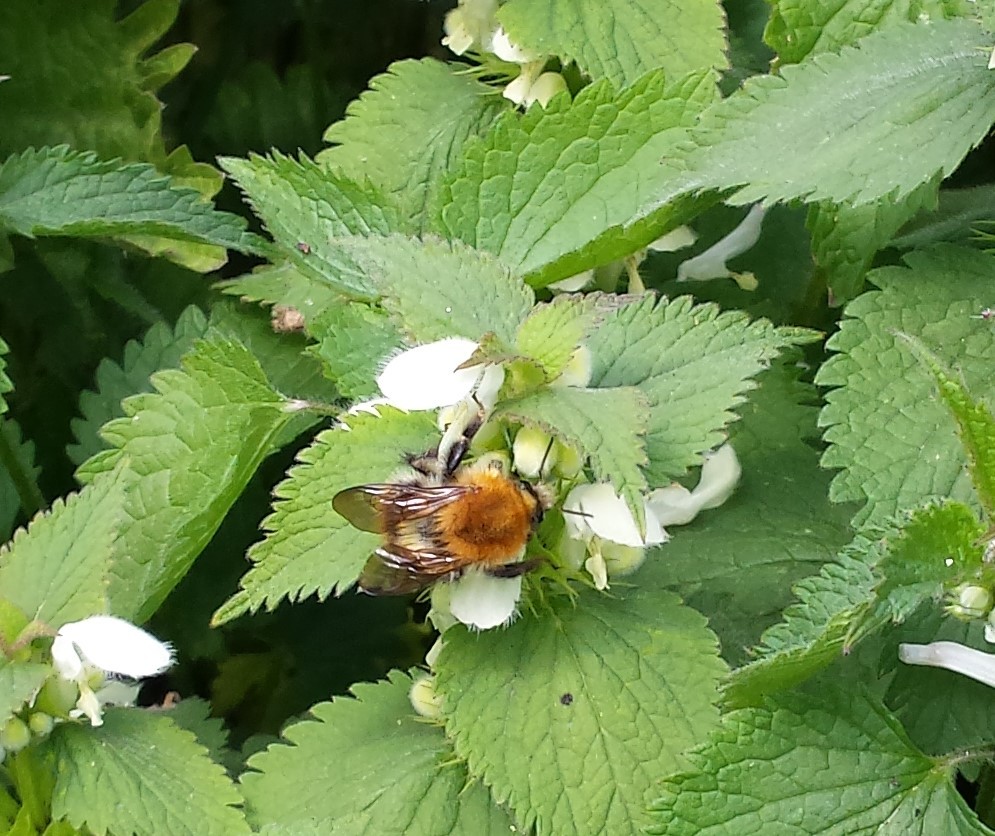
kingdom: Animalia
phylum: Arthropoda
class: Insecta
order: Hymenoptera
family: Apidae
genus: Bombus
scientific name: Bombus pascuorum
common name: Common carder bee
